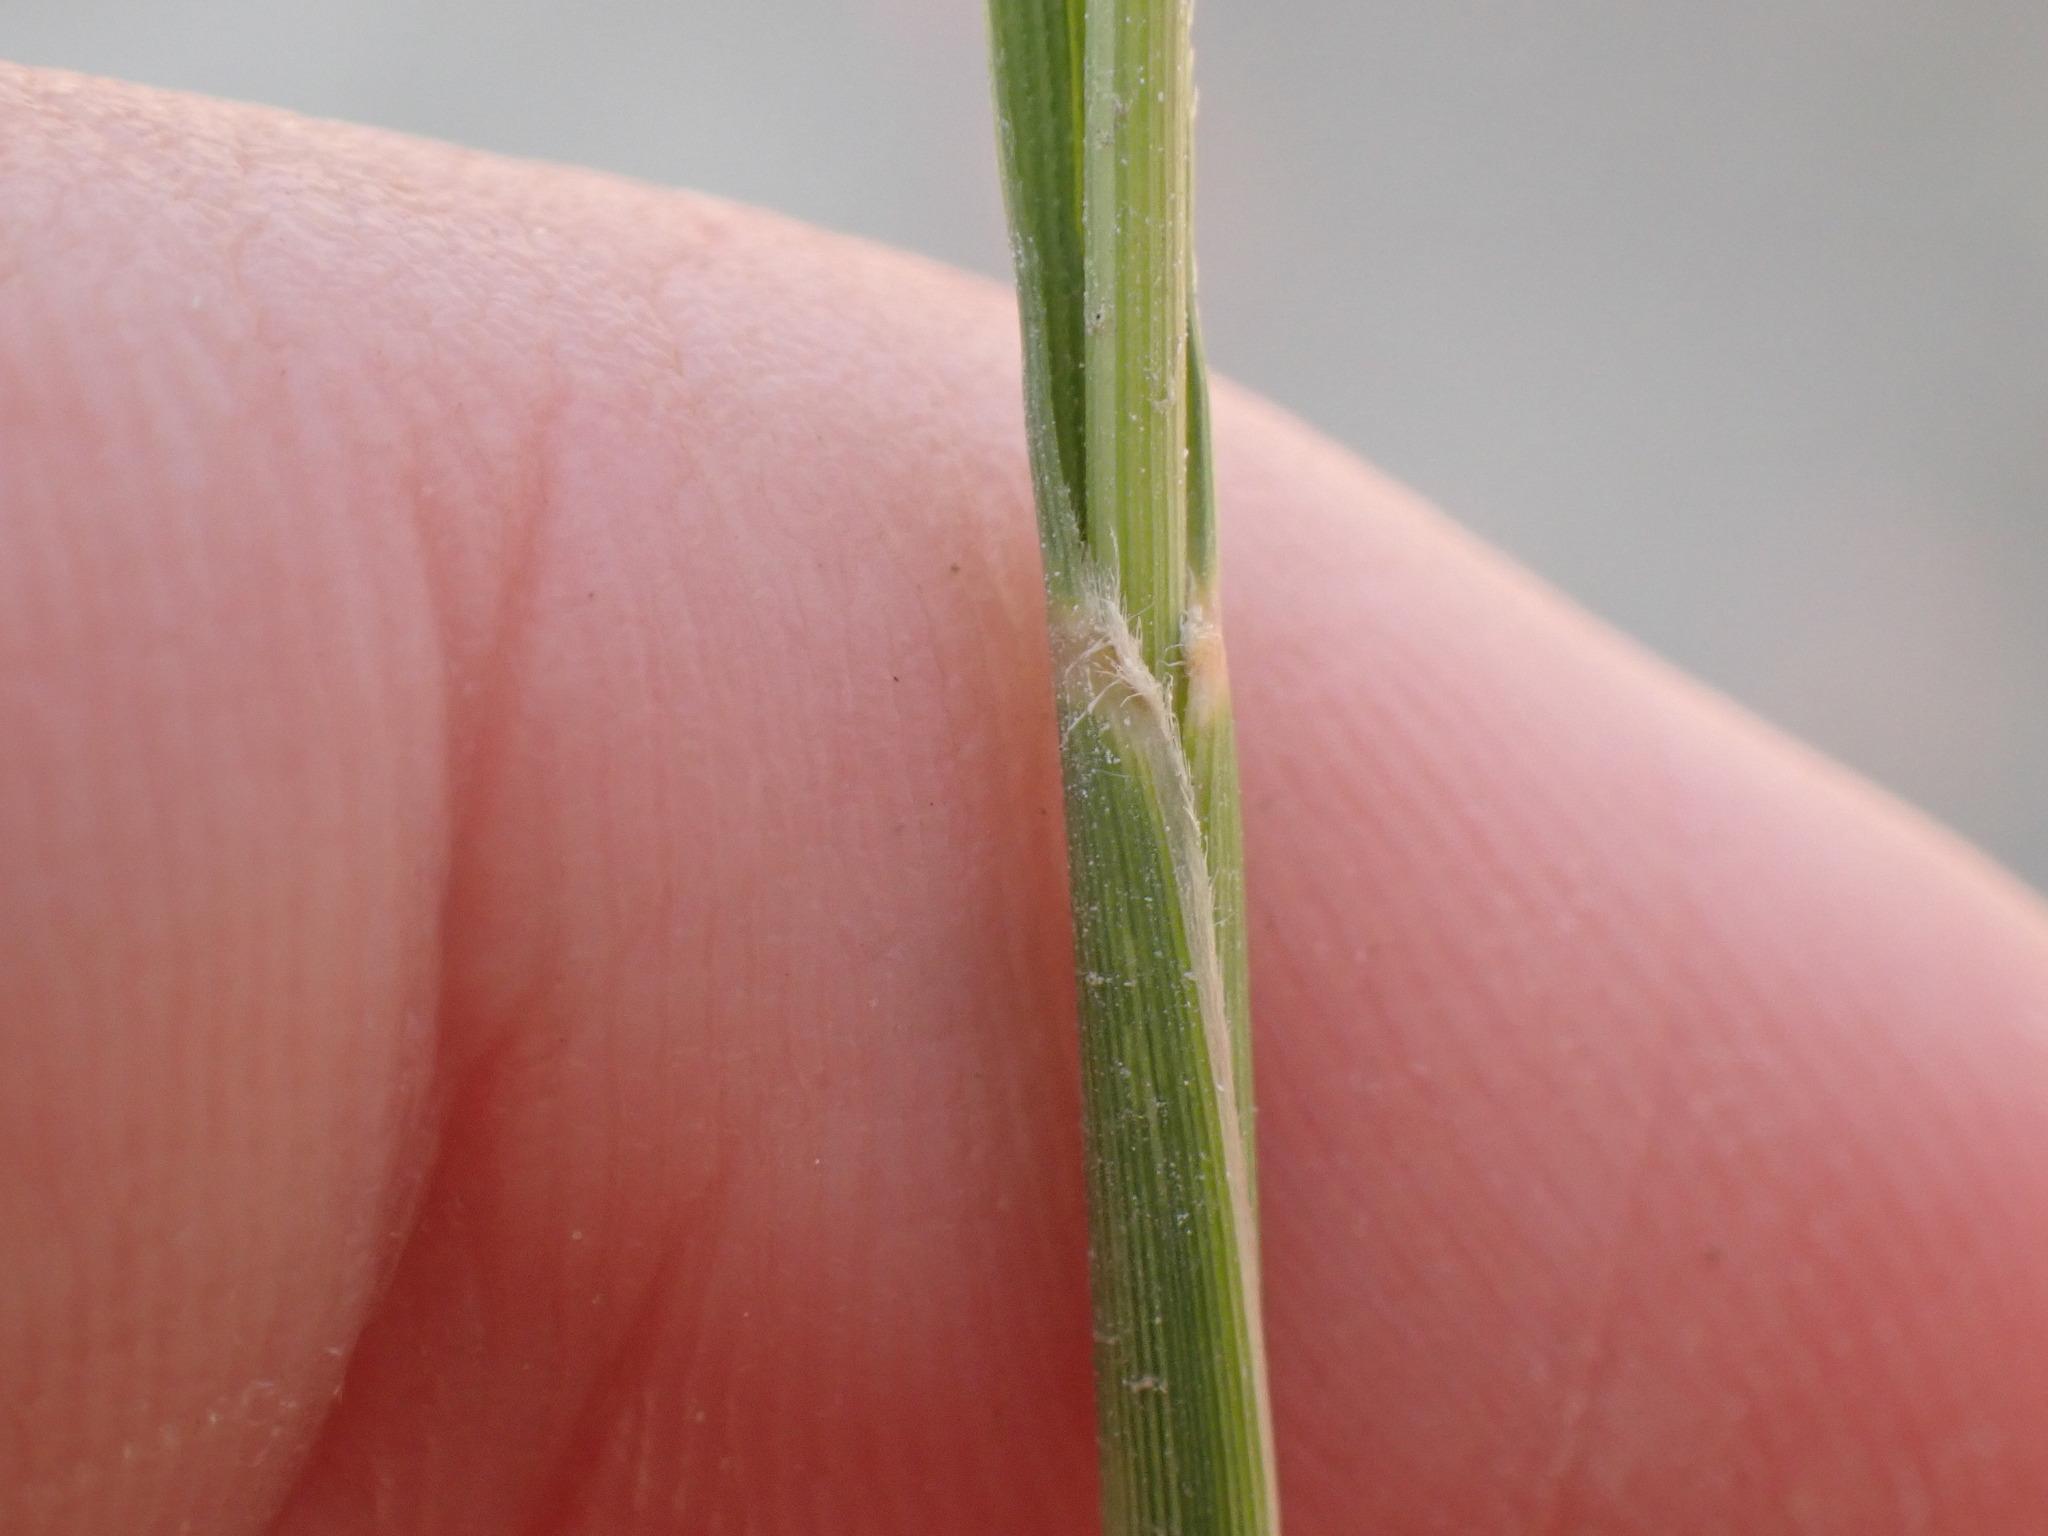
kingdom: Plantae
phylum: Tracheophyta
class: Liliopsida
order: Poales
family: Poaceae
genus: Sporobolus
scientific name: Sporobolus hookerianus
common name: Alkali cordgrass
